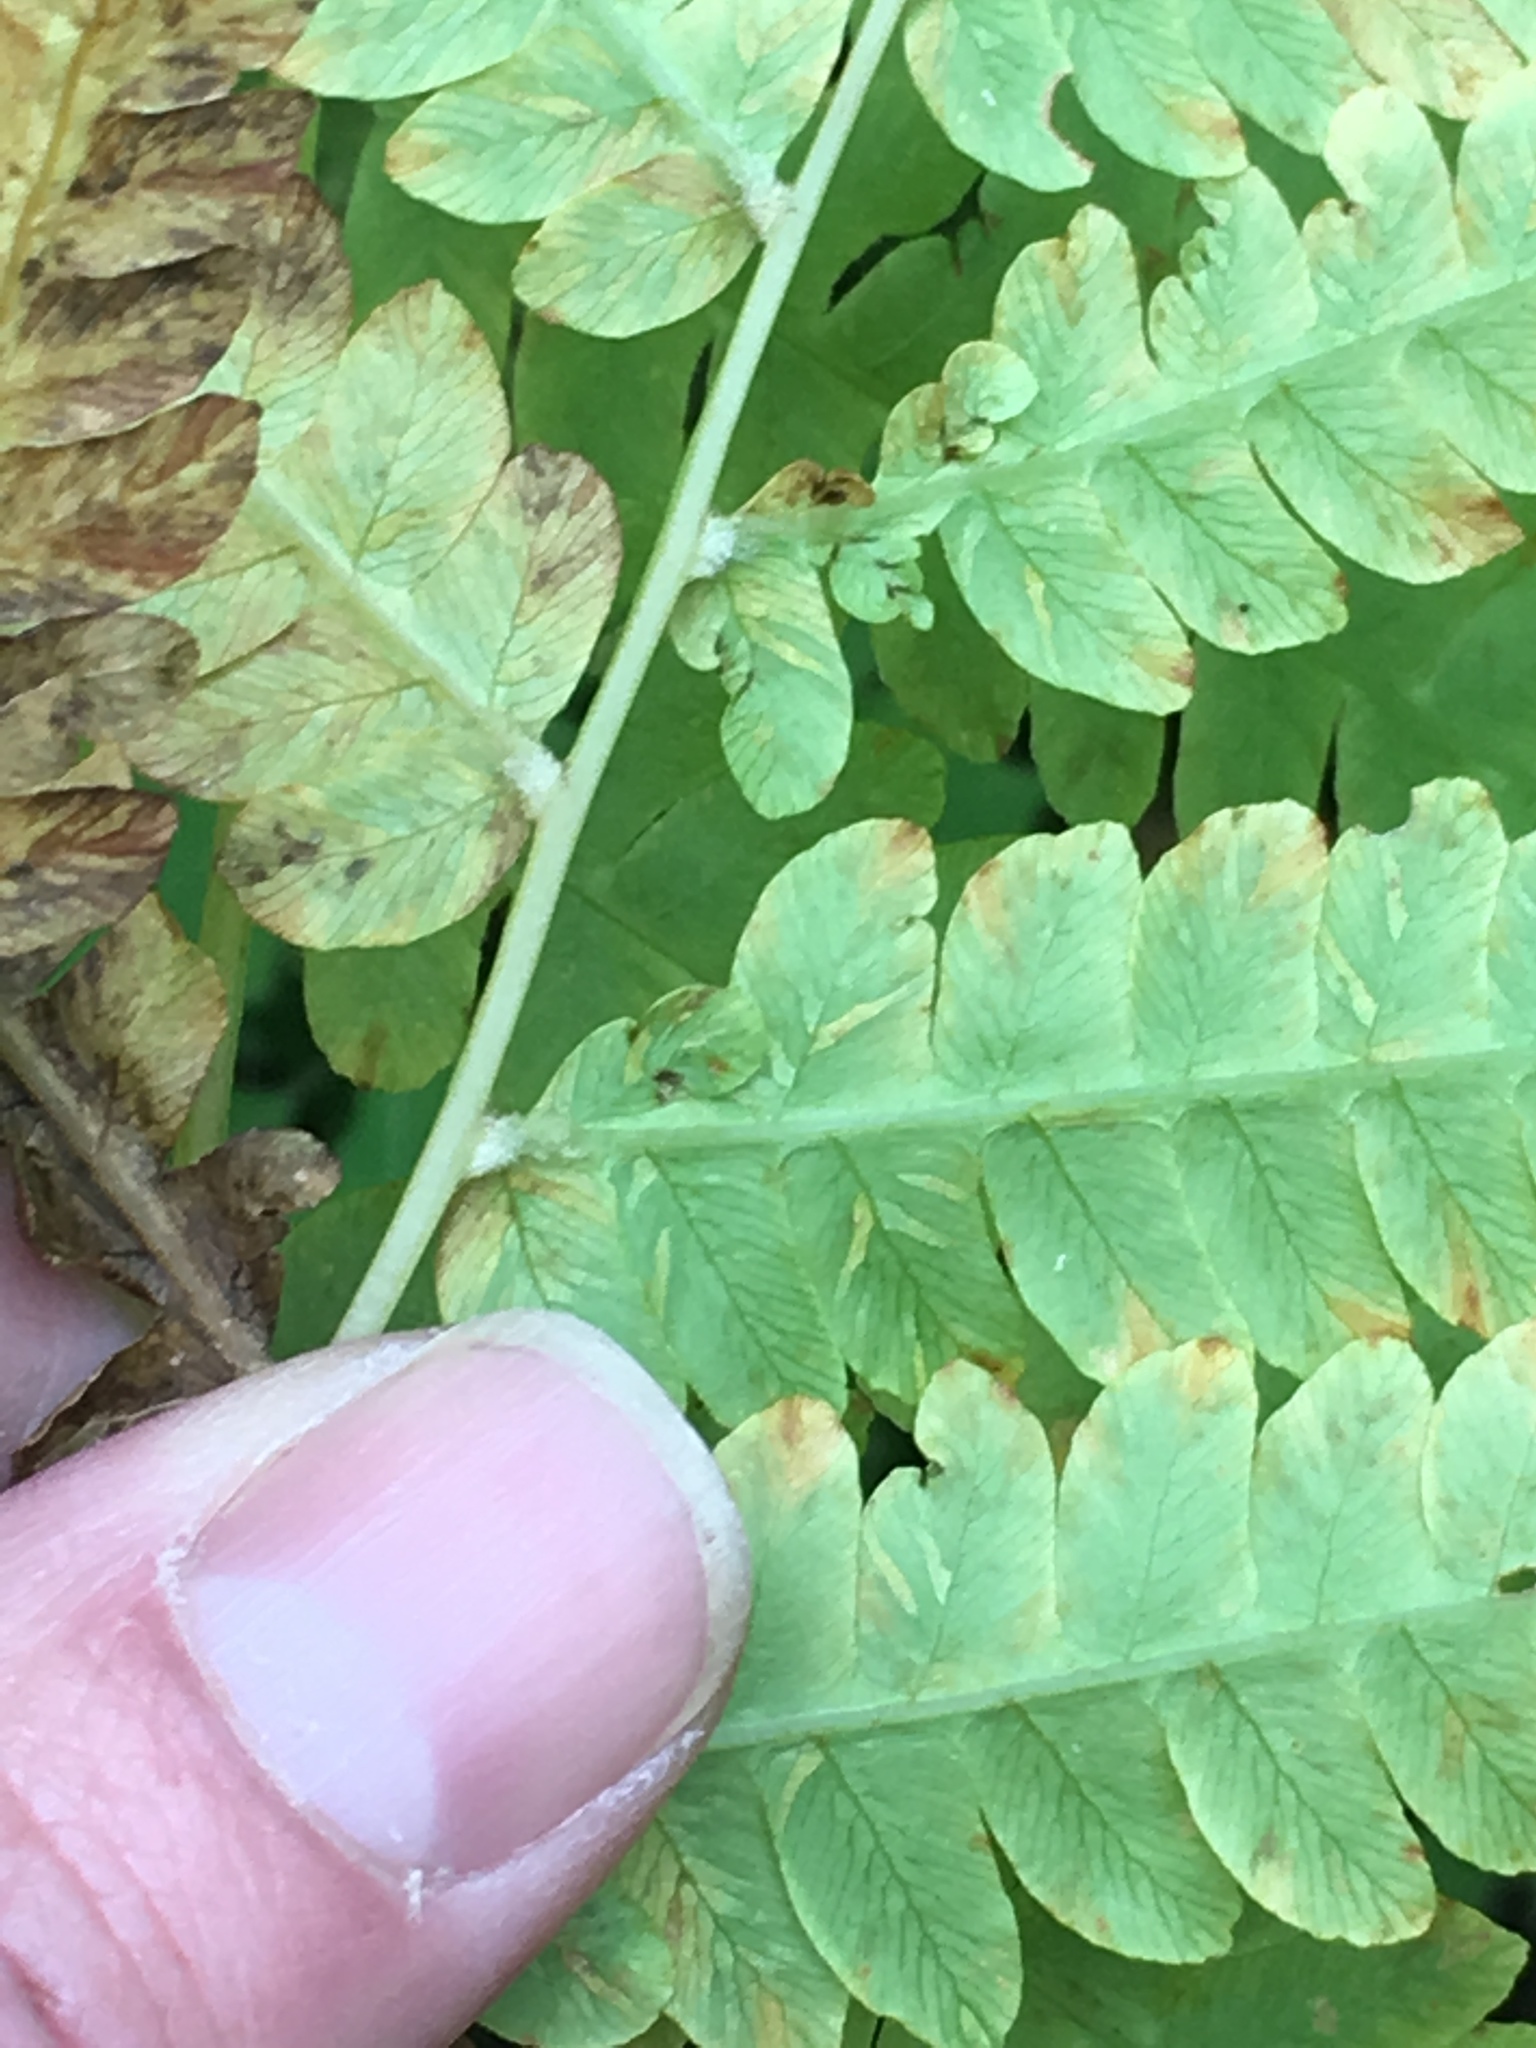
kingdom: Plantae
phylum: Tracheophyta
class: Polypodiopsida
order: Osmundales
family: Osmundaceae
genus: Osmundastrum
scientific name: Osmundastrum cinnamomeum
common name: Cinnamon fern
